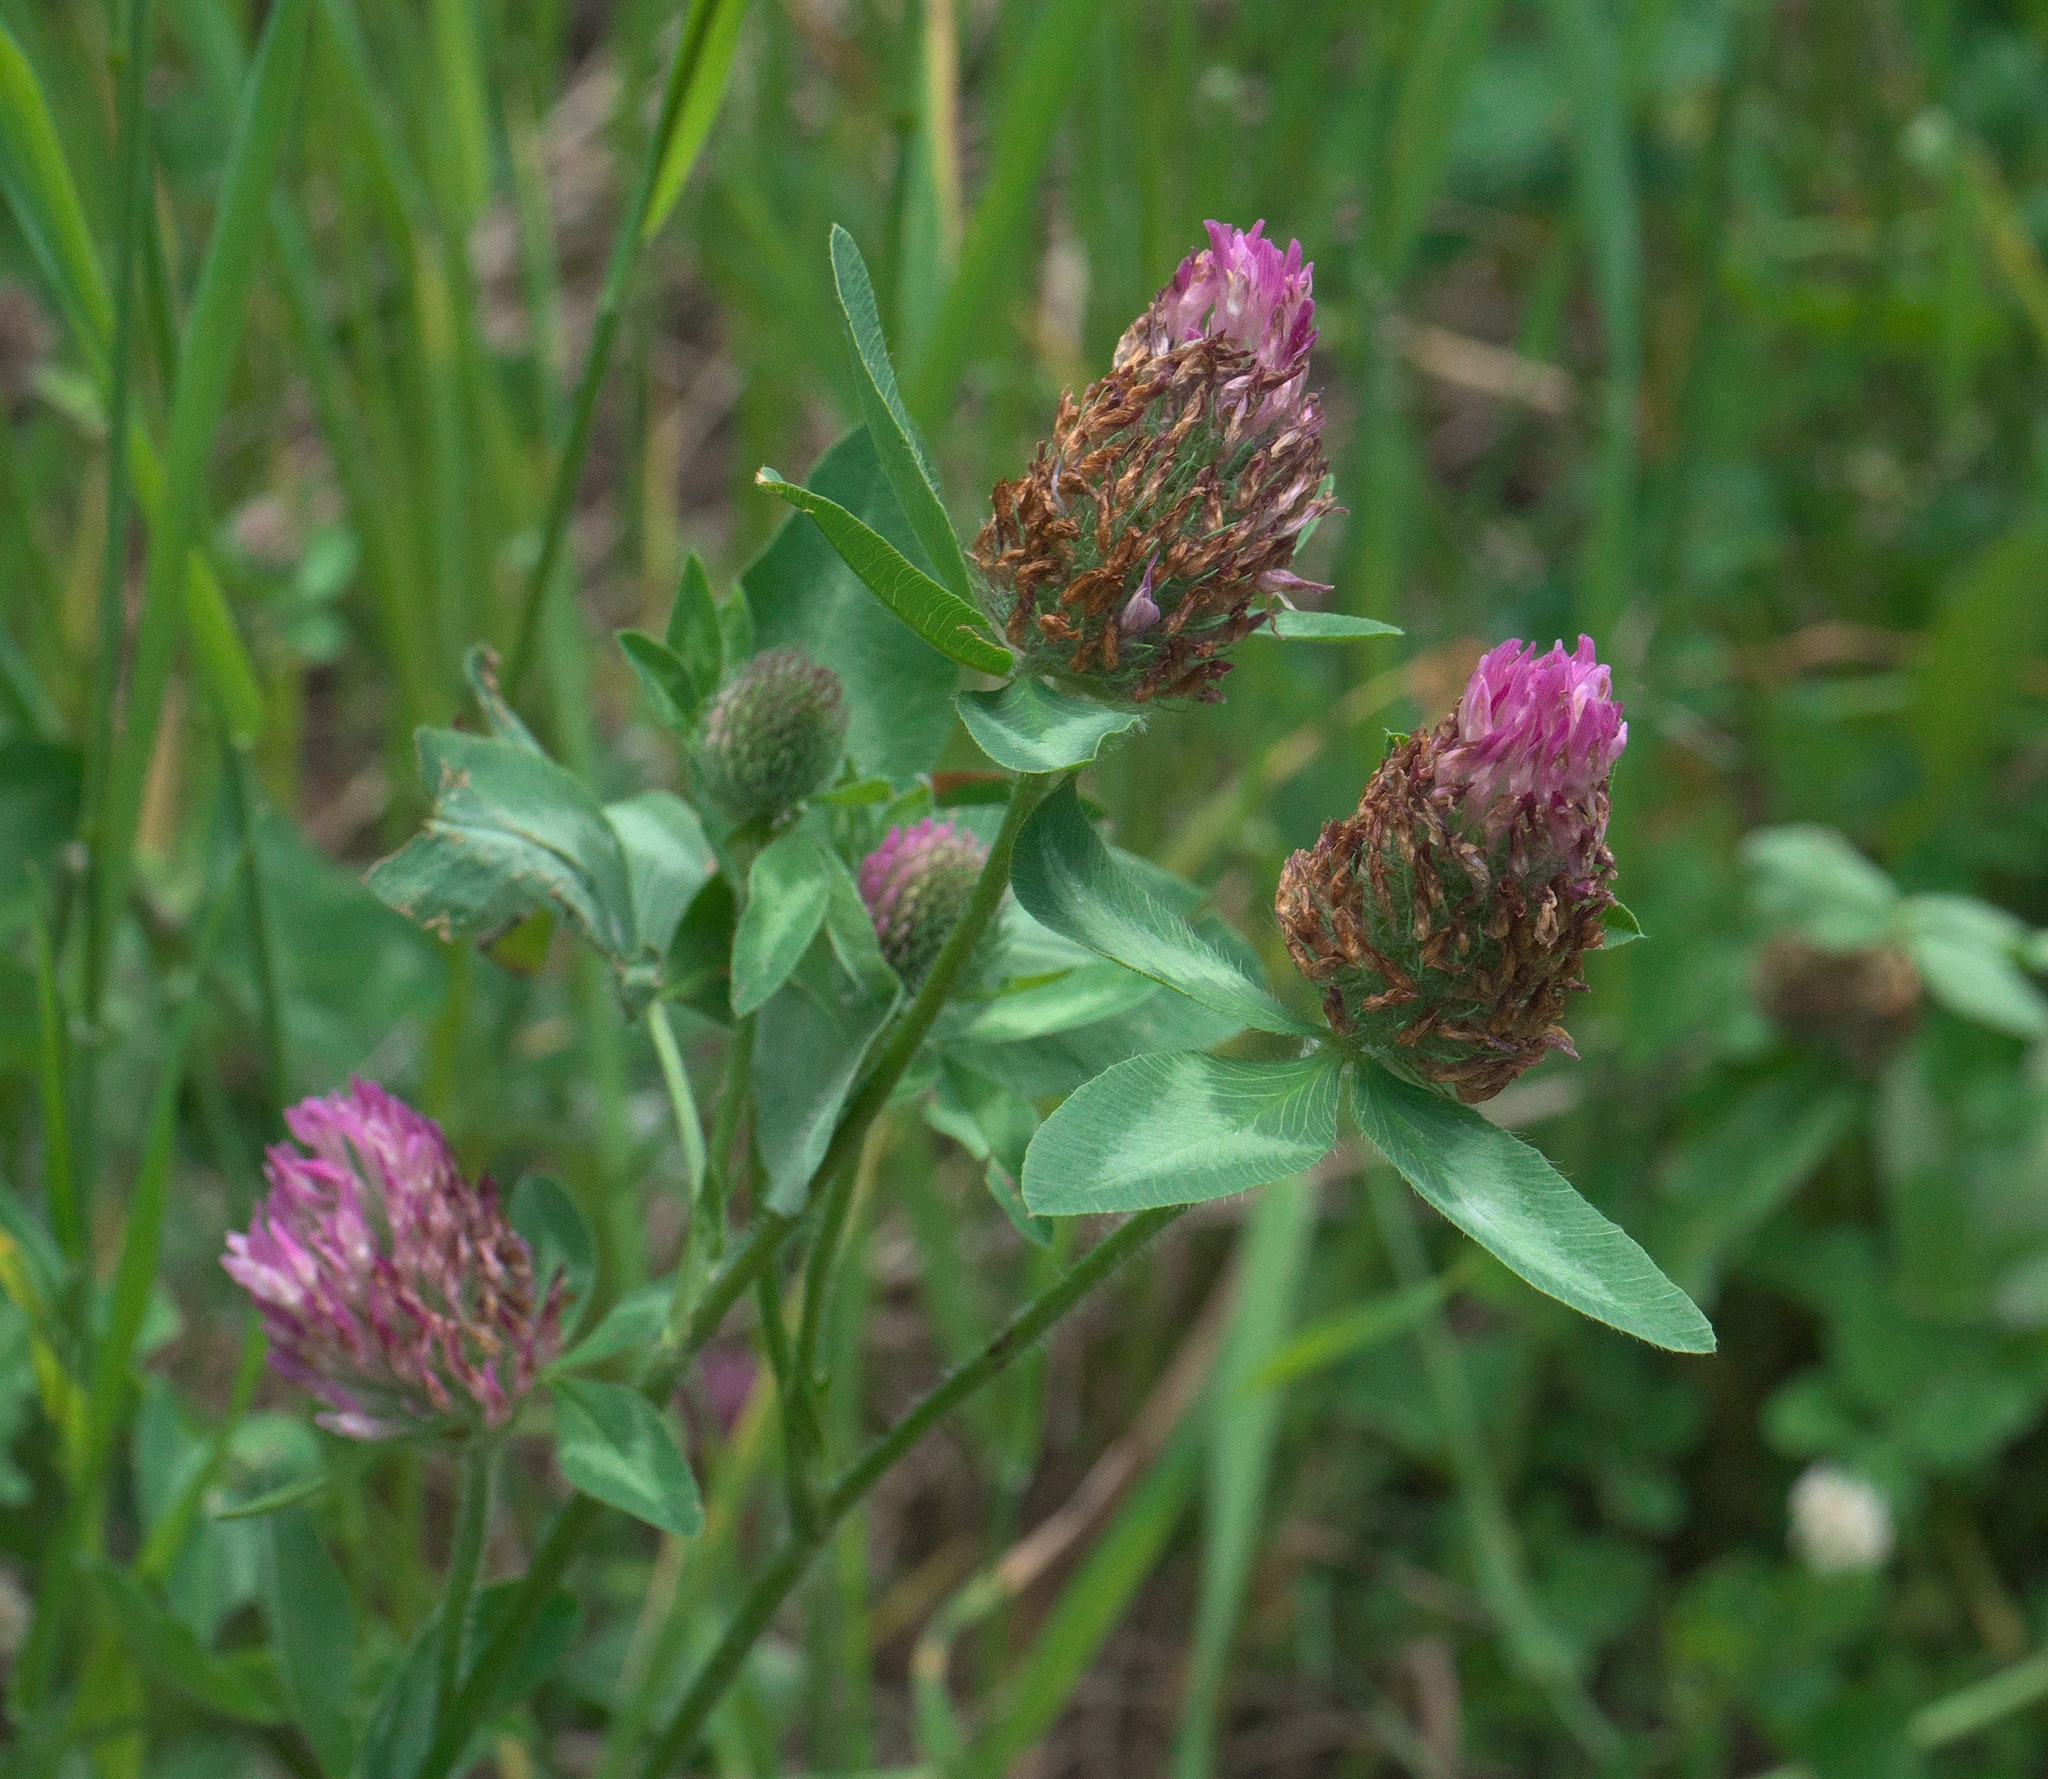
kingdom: Plantae
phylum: Tracheophyta
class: Magnoliopsida
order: Fabales
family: Fabaceae
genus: Trifolium
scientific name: Trifolium pratense
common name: Red clover
